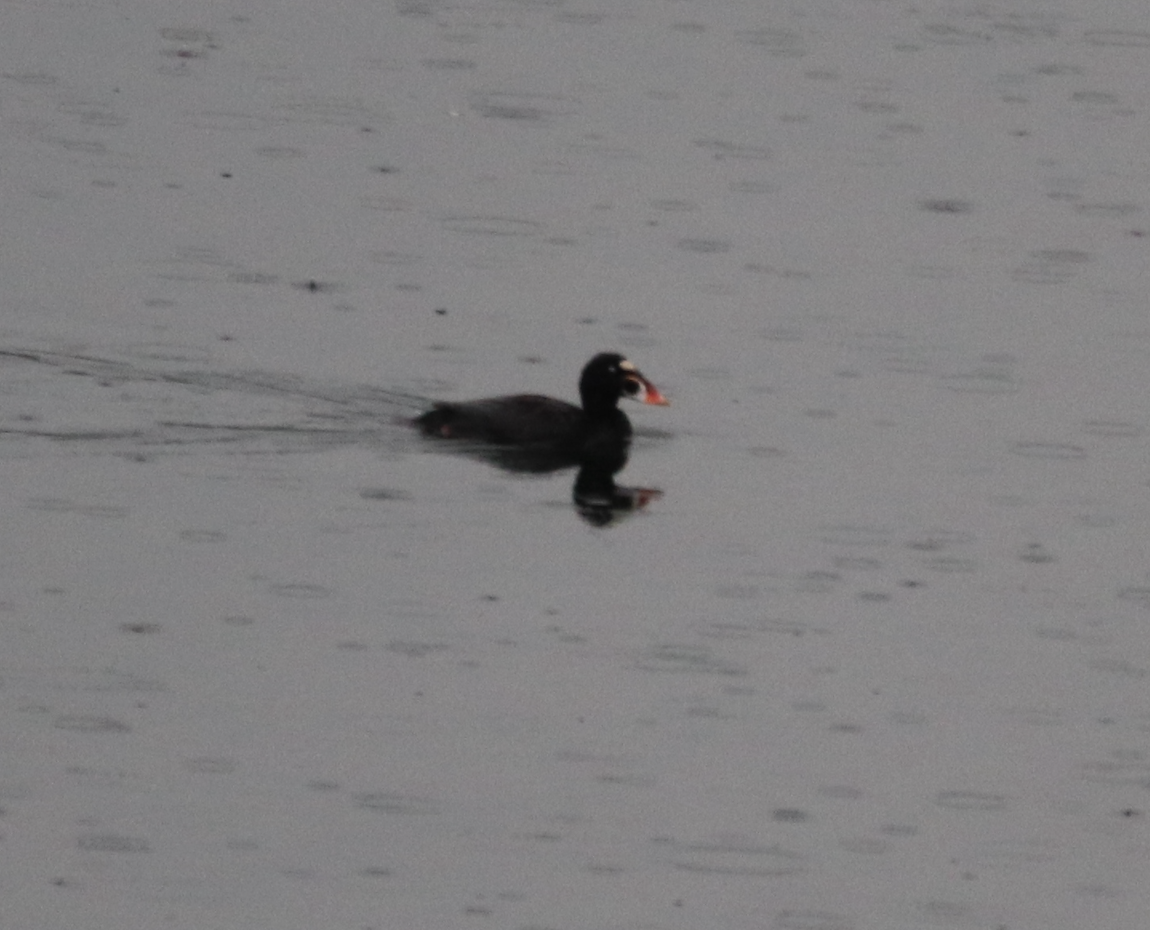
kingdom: Animalia
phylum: Chordata
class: Aves
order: Anseriformes
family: Anatidae
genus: Melanitta
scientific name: Melanitta perspicillata
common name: Surf scoter
